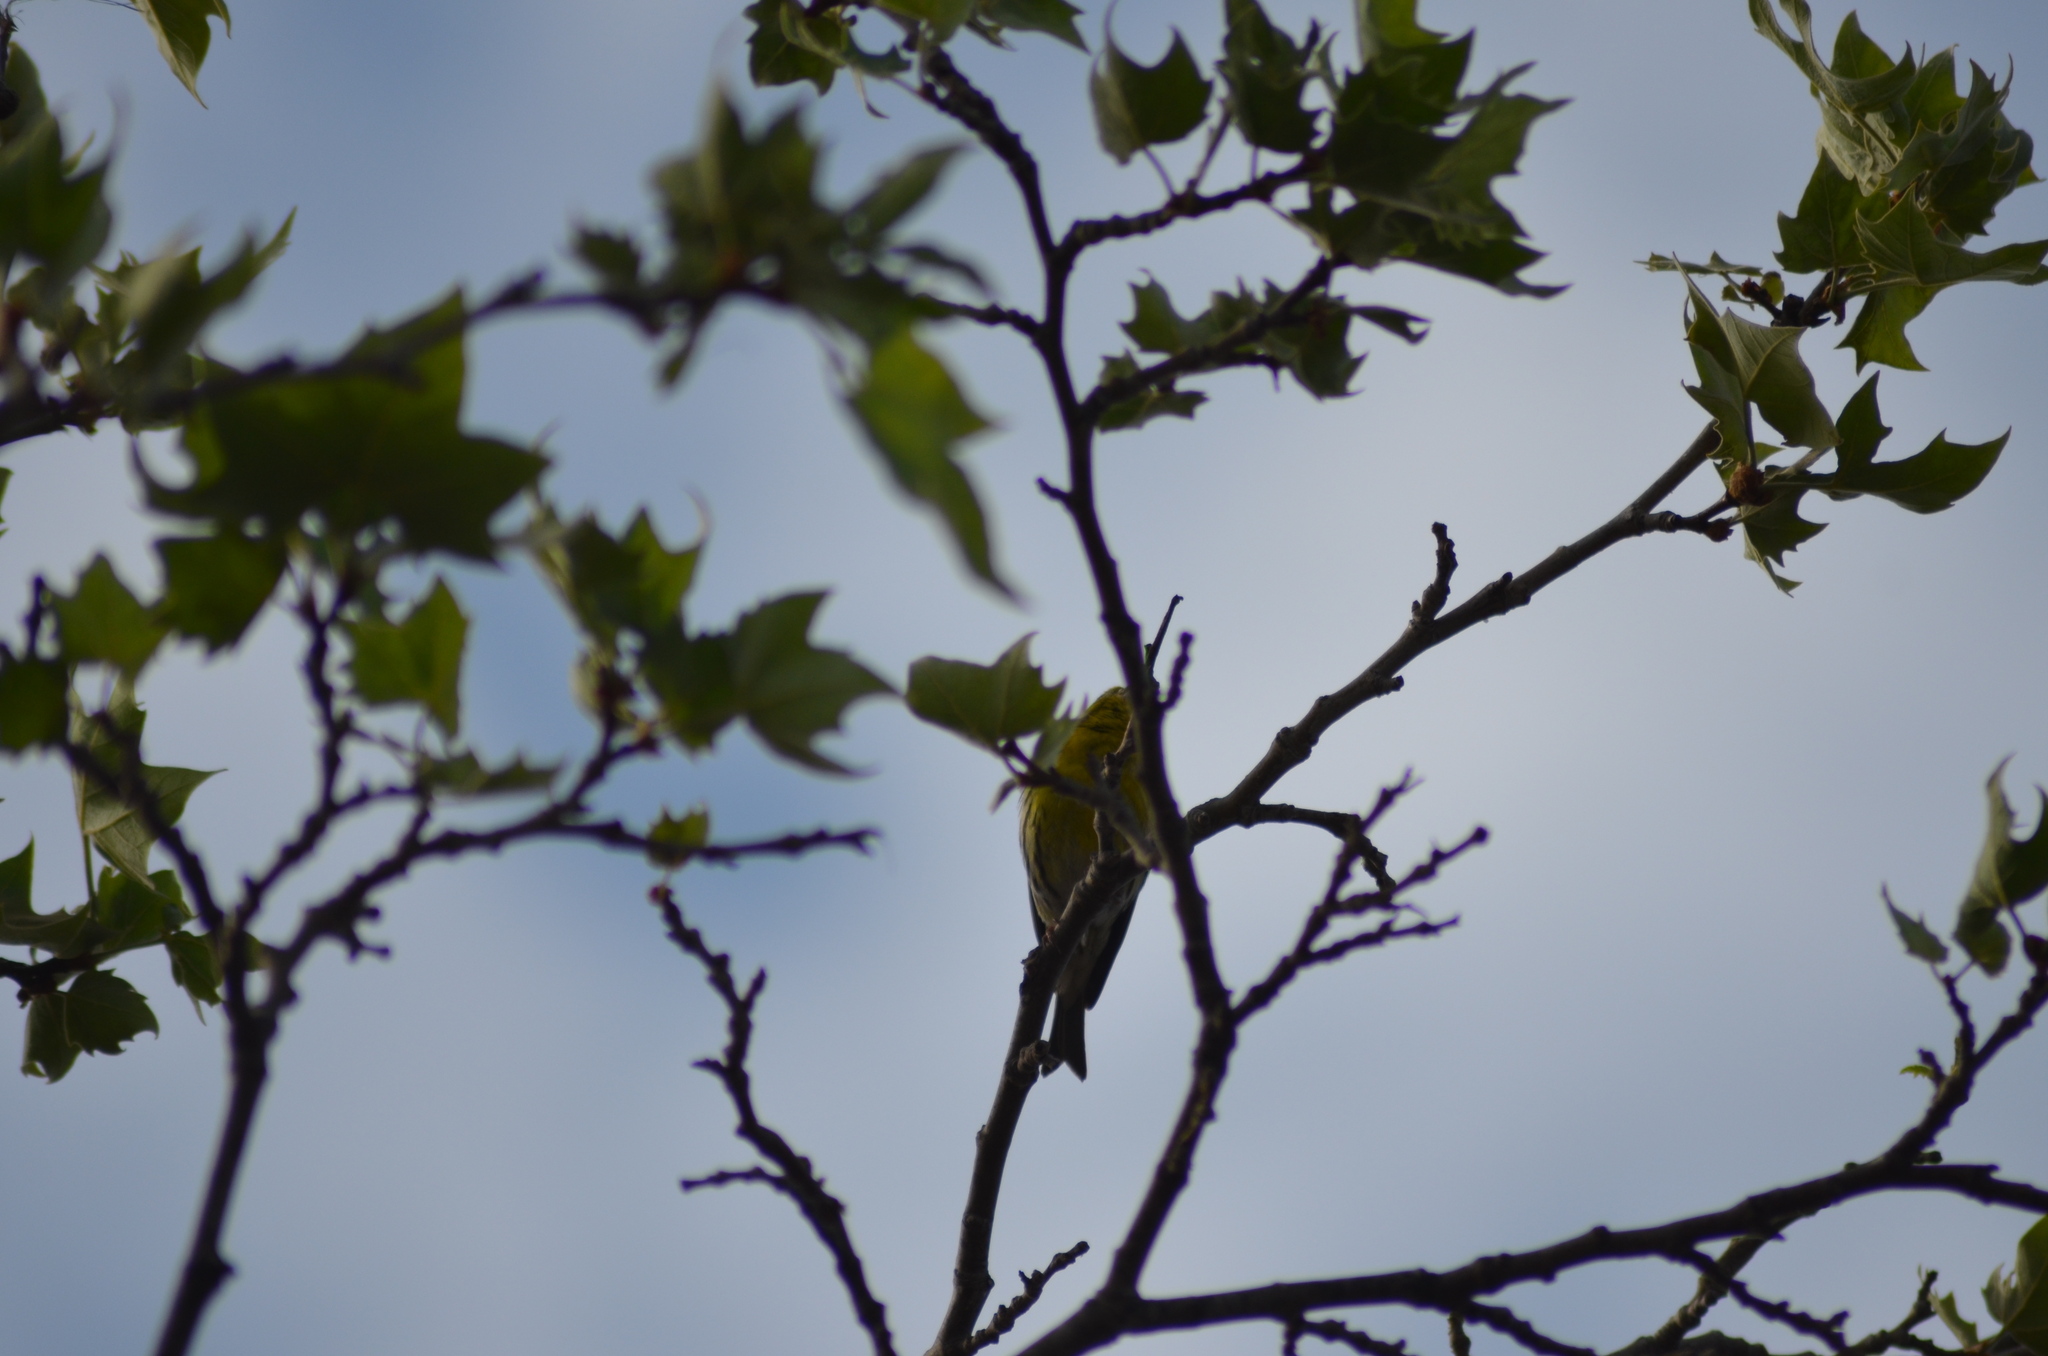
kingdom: Animalia
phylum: Chordata
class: Aves
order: Passeriformes
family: Fringillidae
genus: Serinus
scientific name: Serinus serinus
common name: European serin
